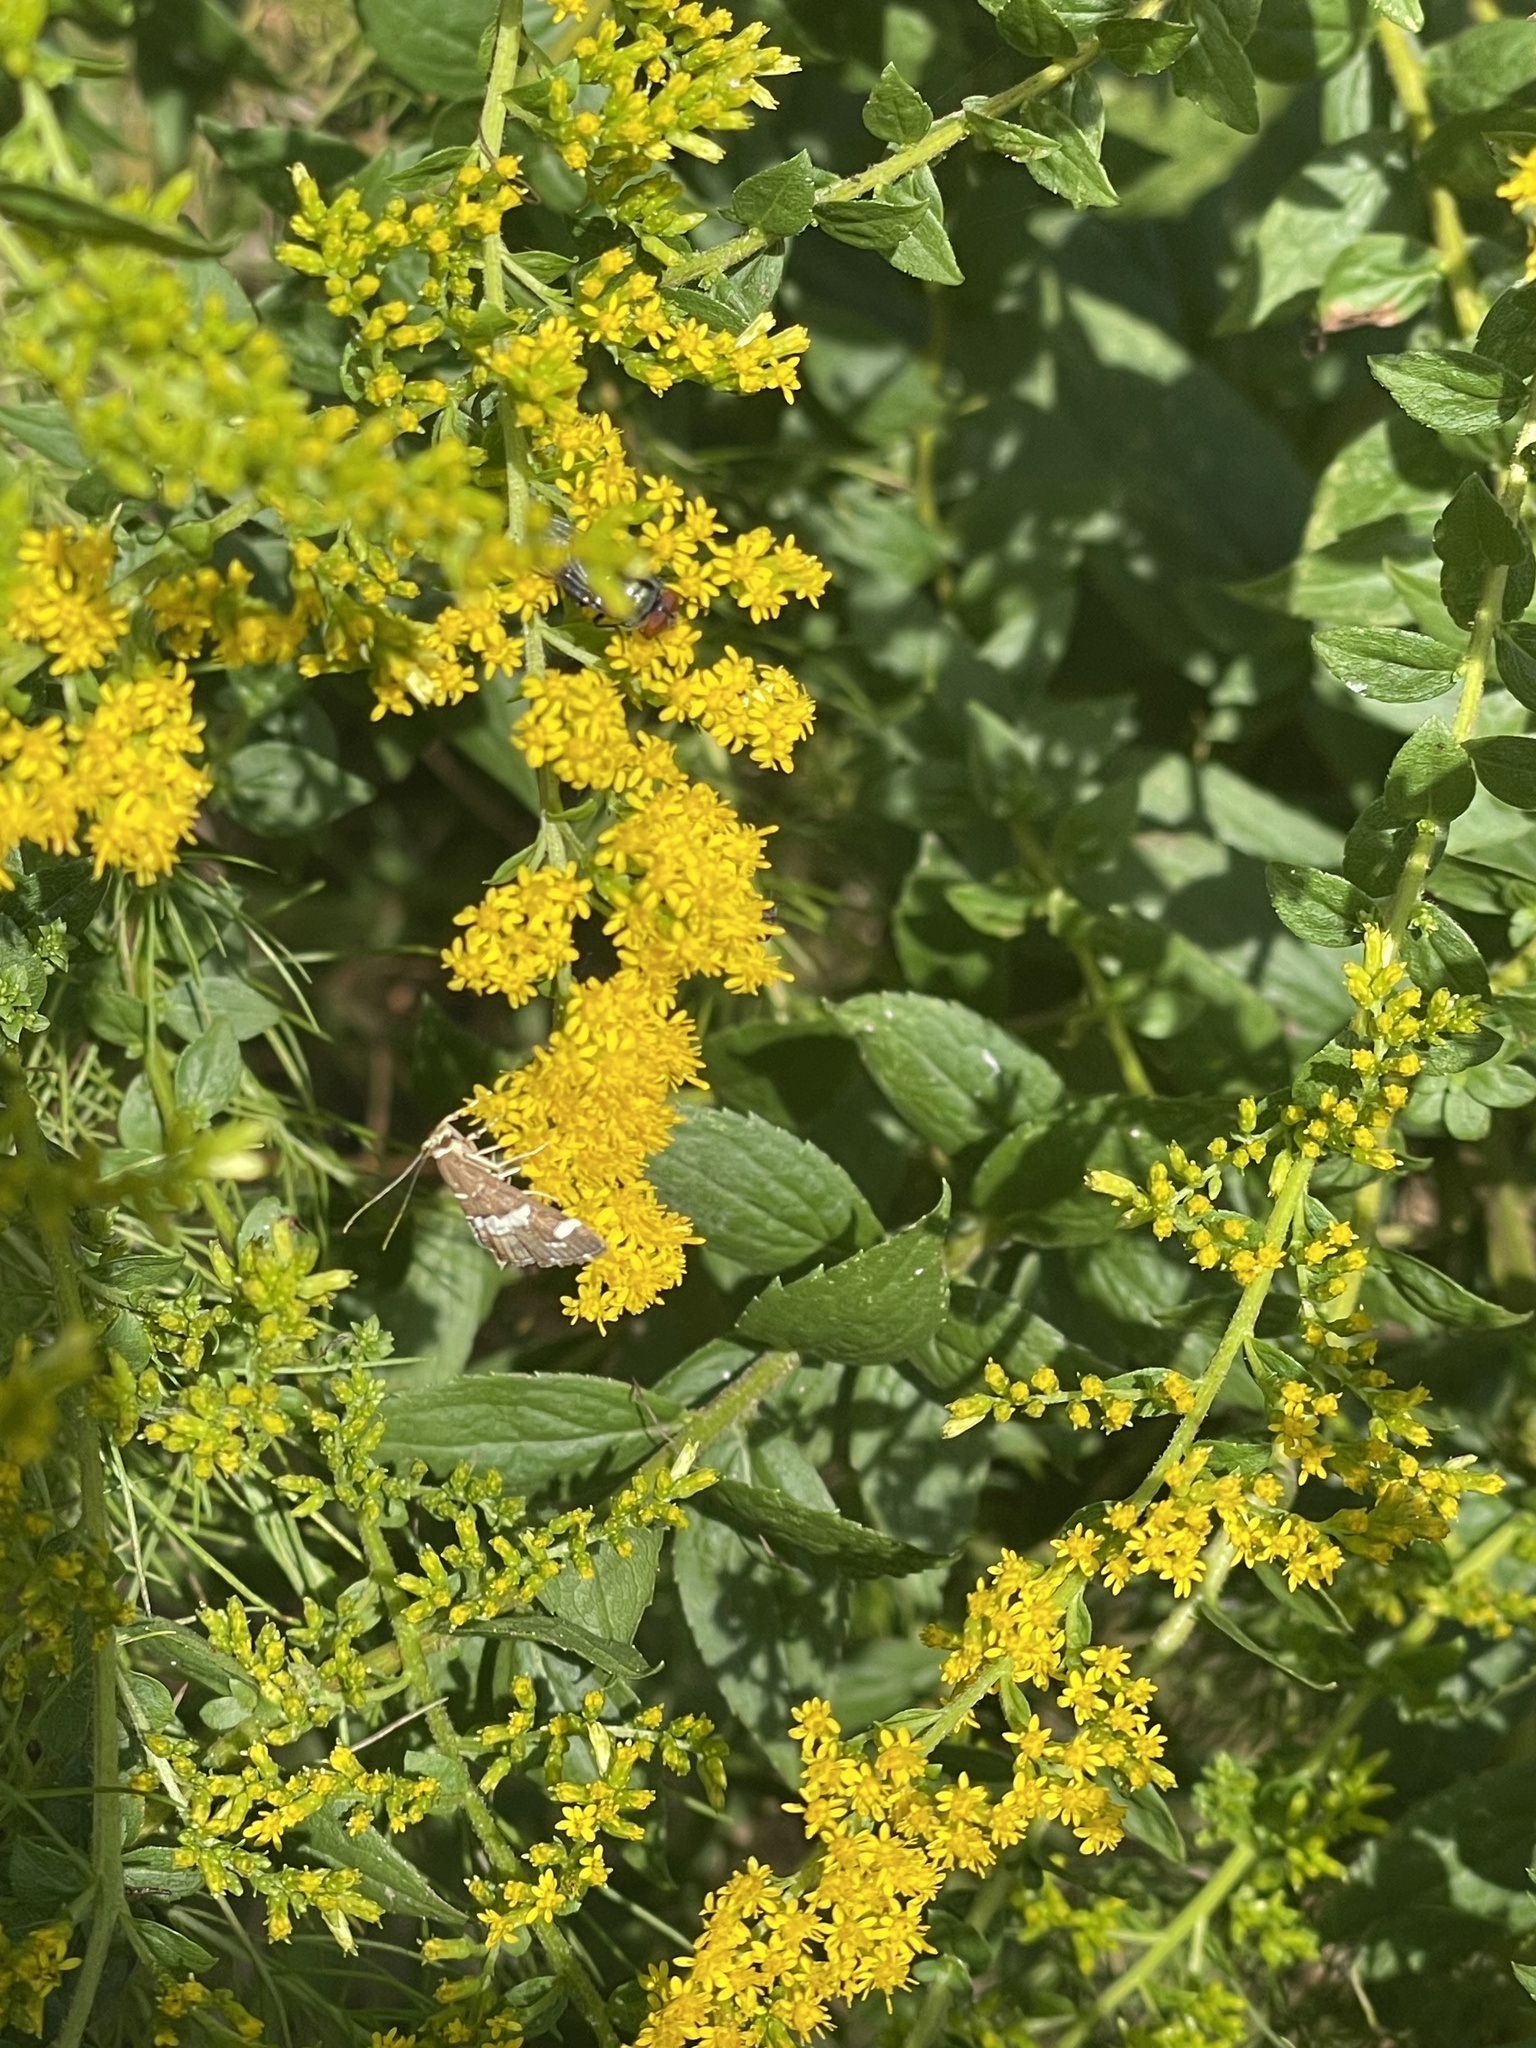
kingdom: Animalia
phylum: Arthropoda
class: Insecta
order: Lepidoptera
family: Crambidae
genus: Spoladea
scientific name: Spoladea recurvalis
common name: Beet webworm moth
